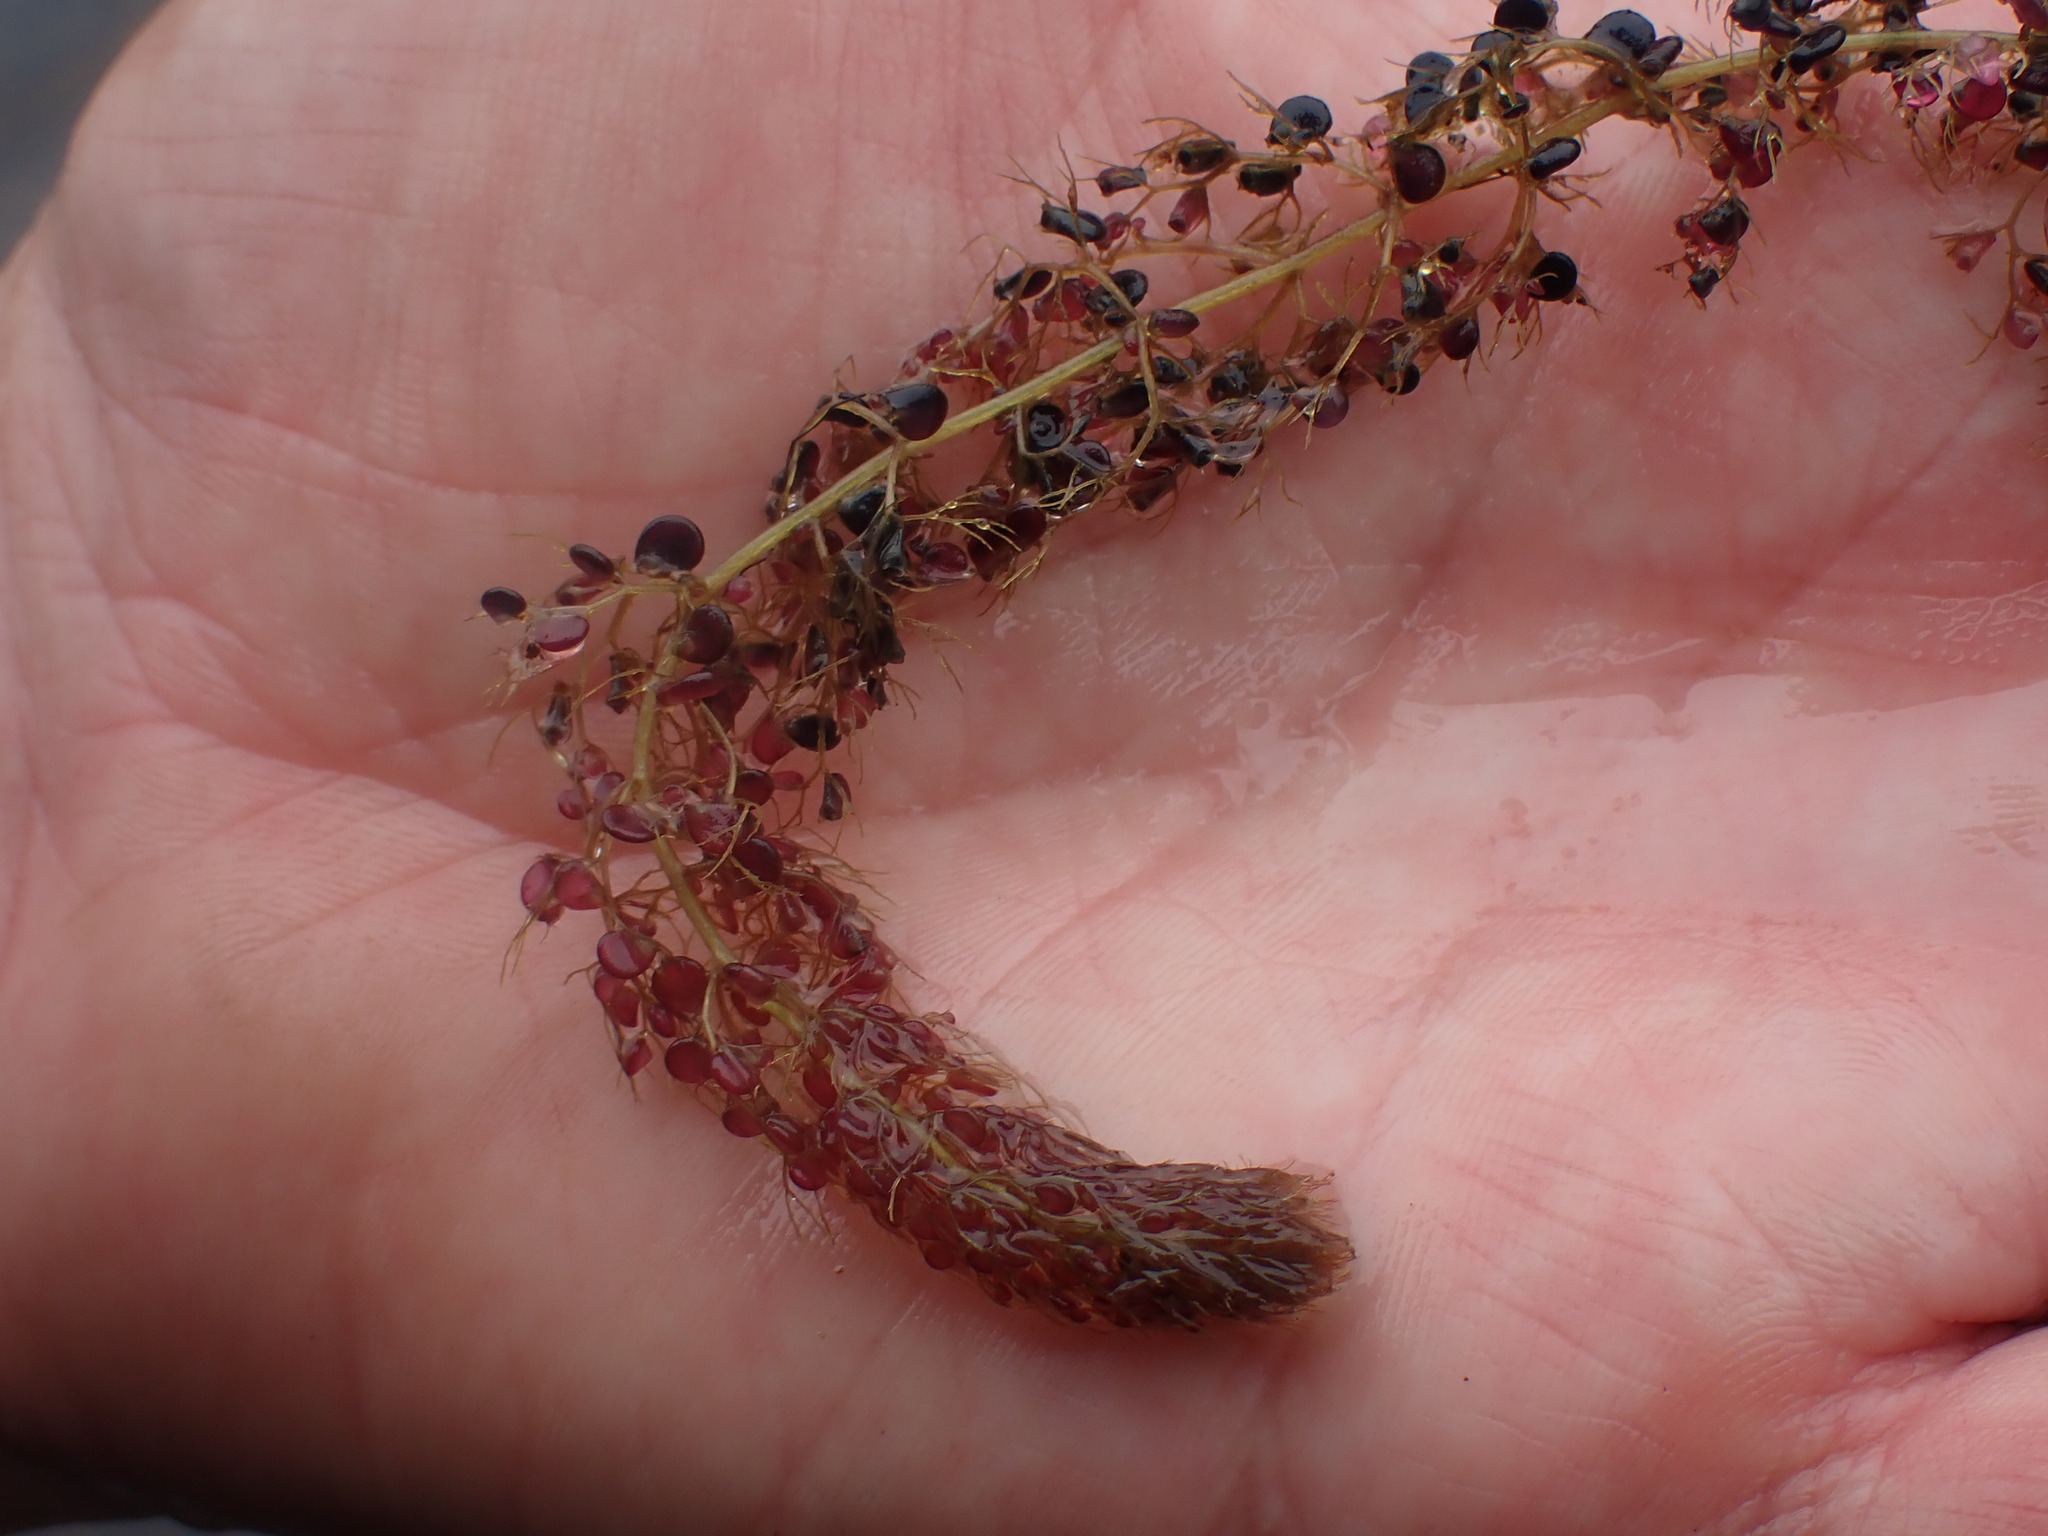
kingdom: Plantae
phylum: Tracheophyta
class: Magnoliopsida
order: Lamiales
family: Lentibulariaceae
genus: Utricularia
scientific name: Utricularia macrorhiza
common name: Common bladderwort
